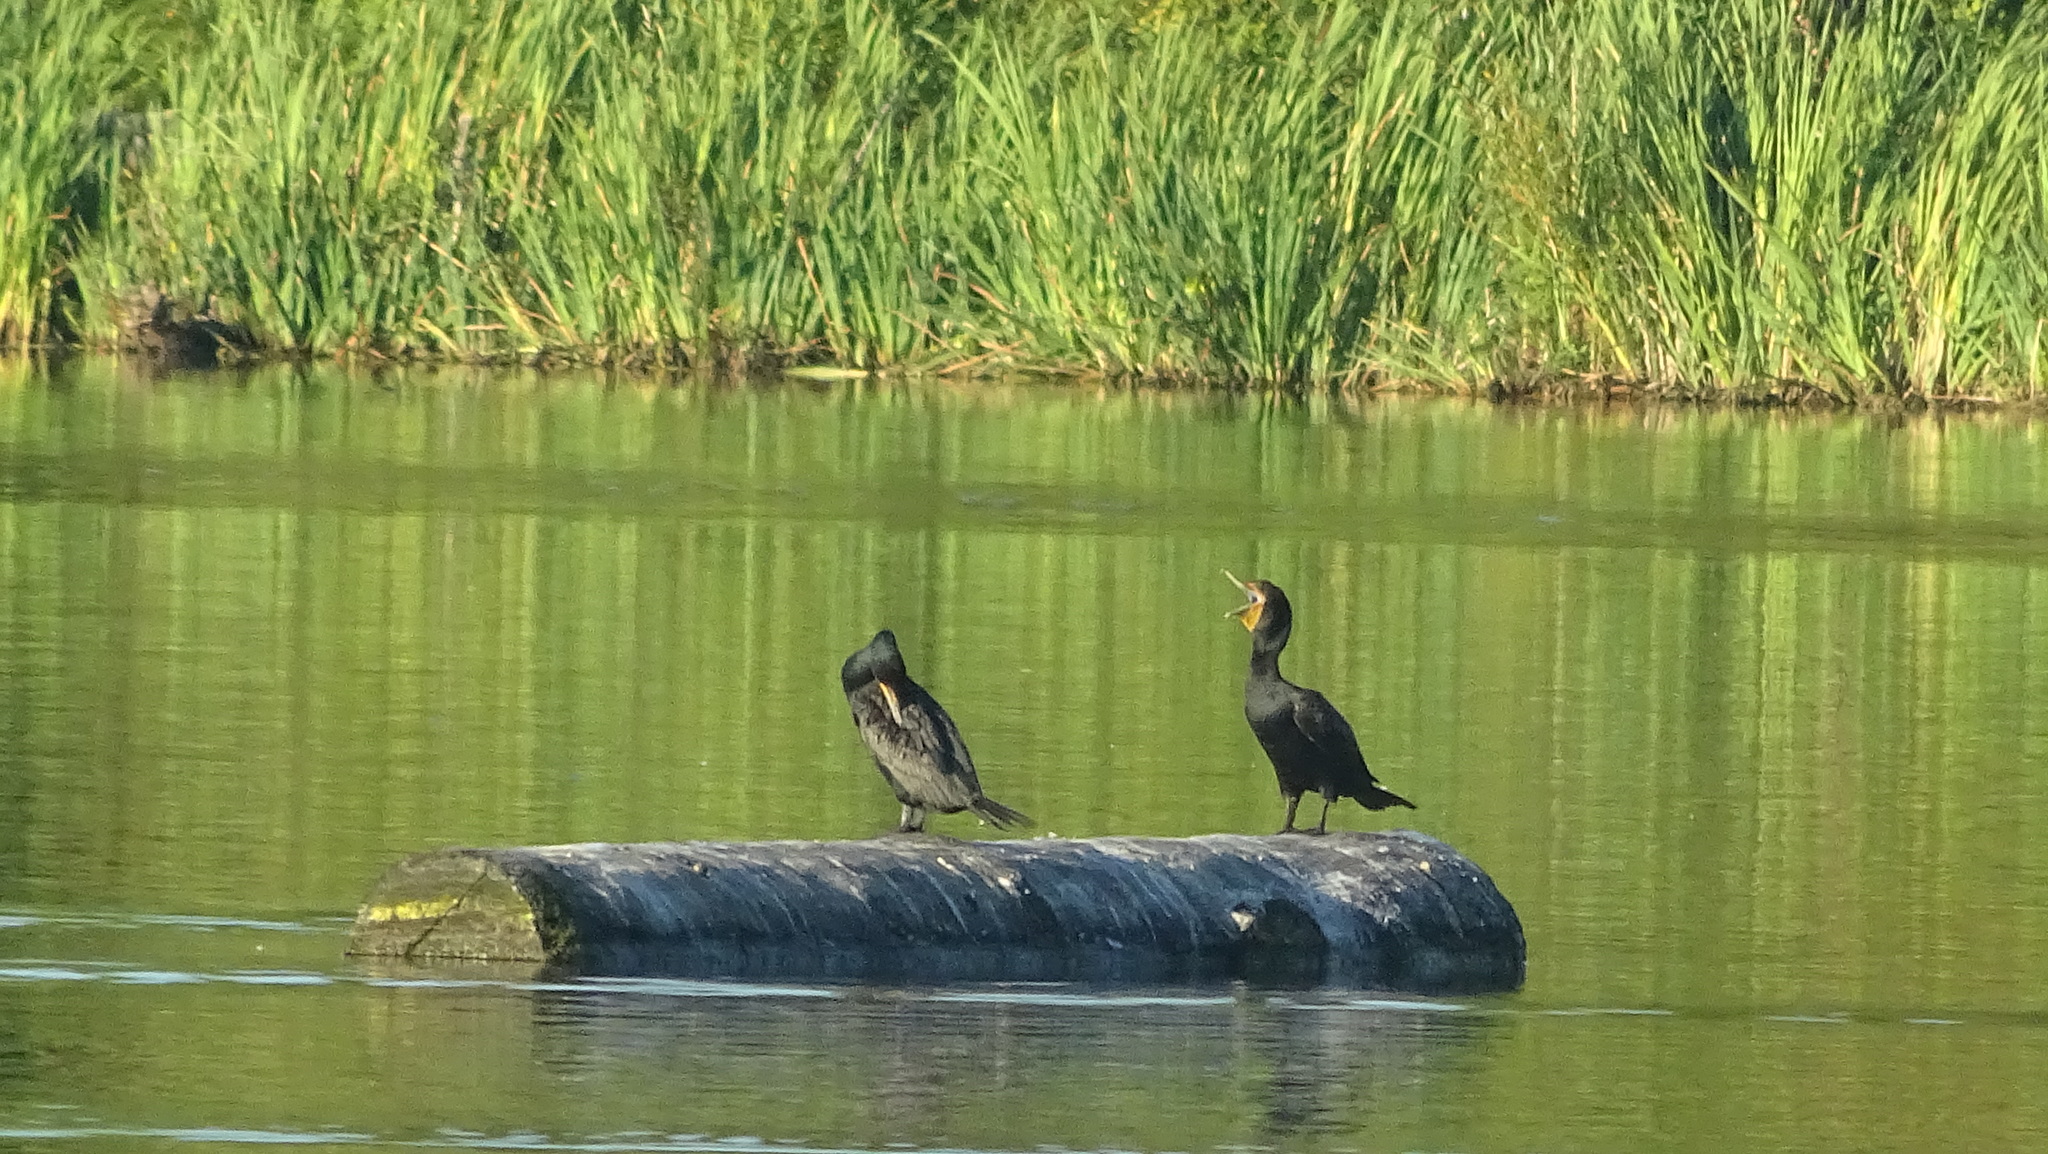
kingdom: Animalia
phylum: Chordata
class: Aves
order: Suliformes
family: Phalacrocoracidae
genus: Phalacrocorax
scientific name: Phalacrocorax auritus
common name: Double-crested cormorant
